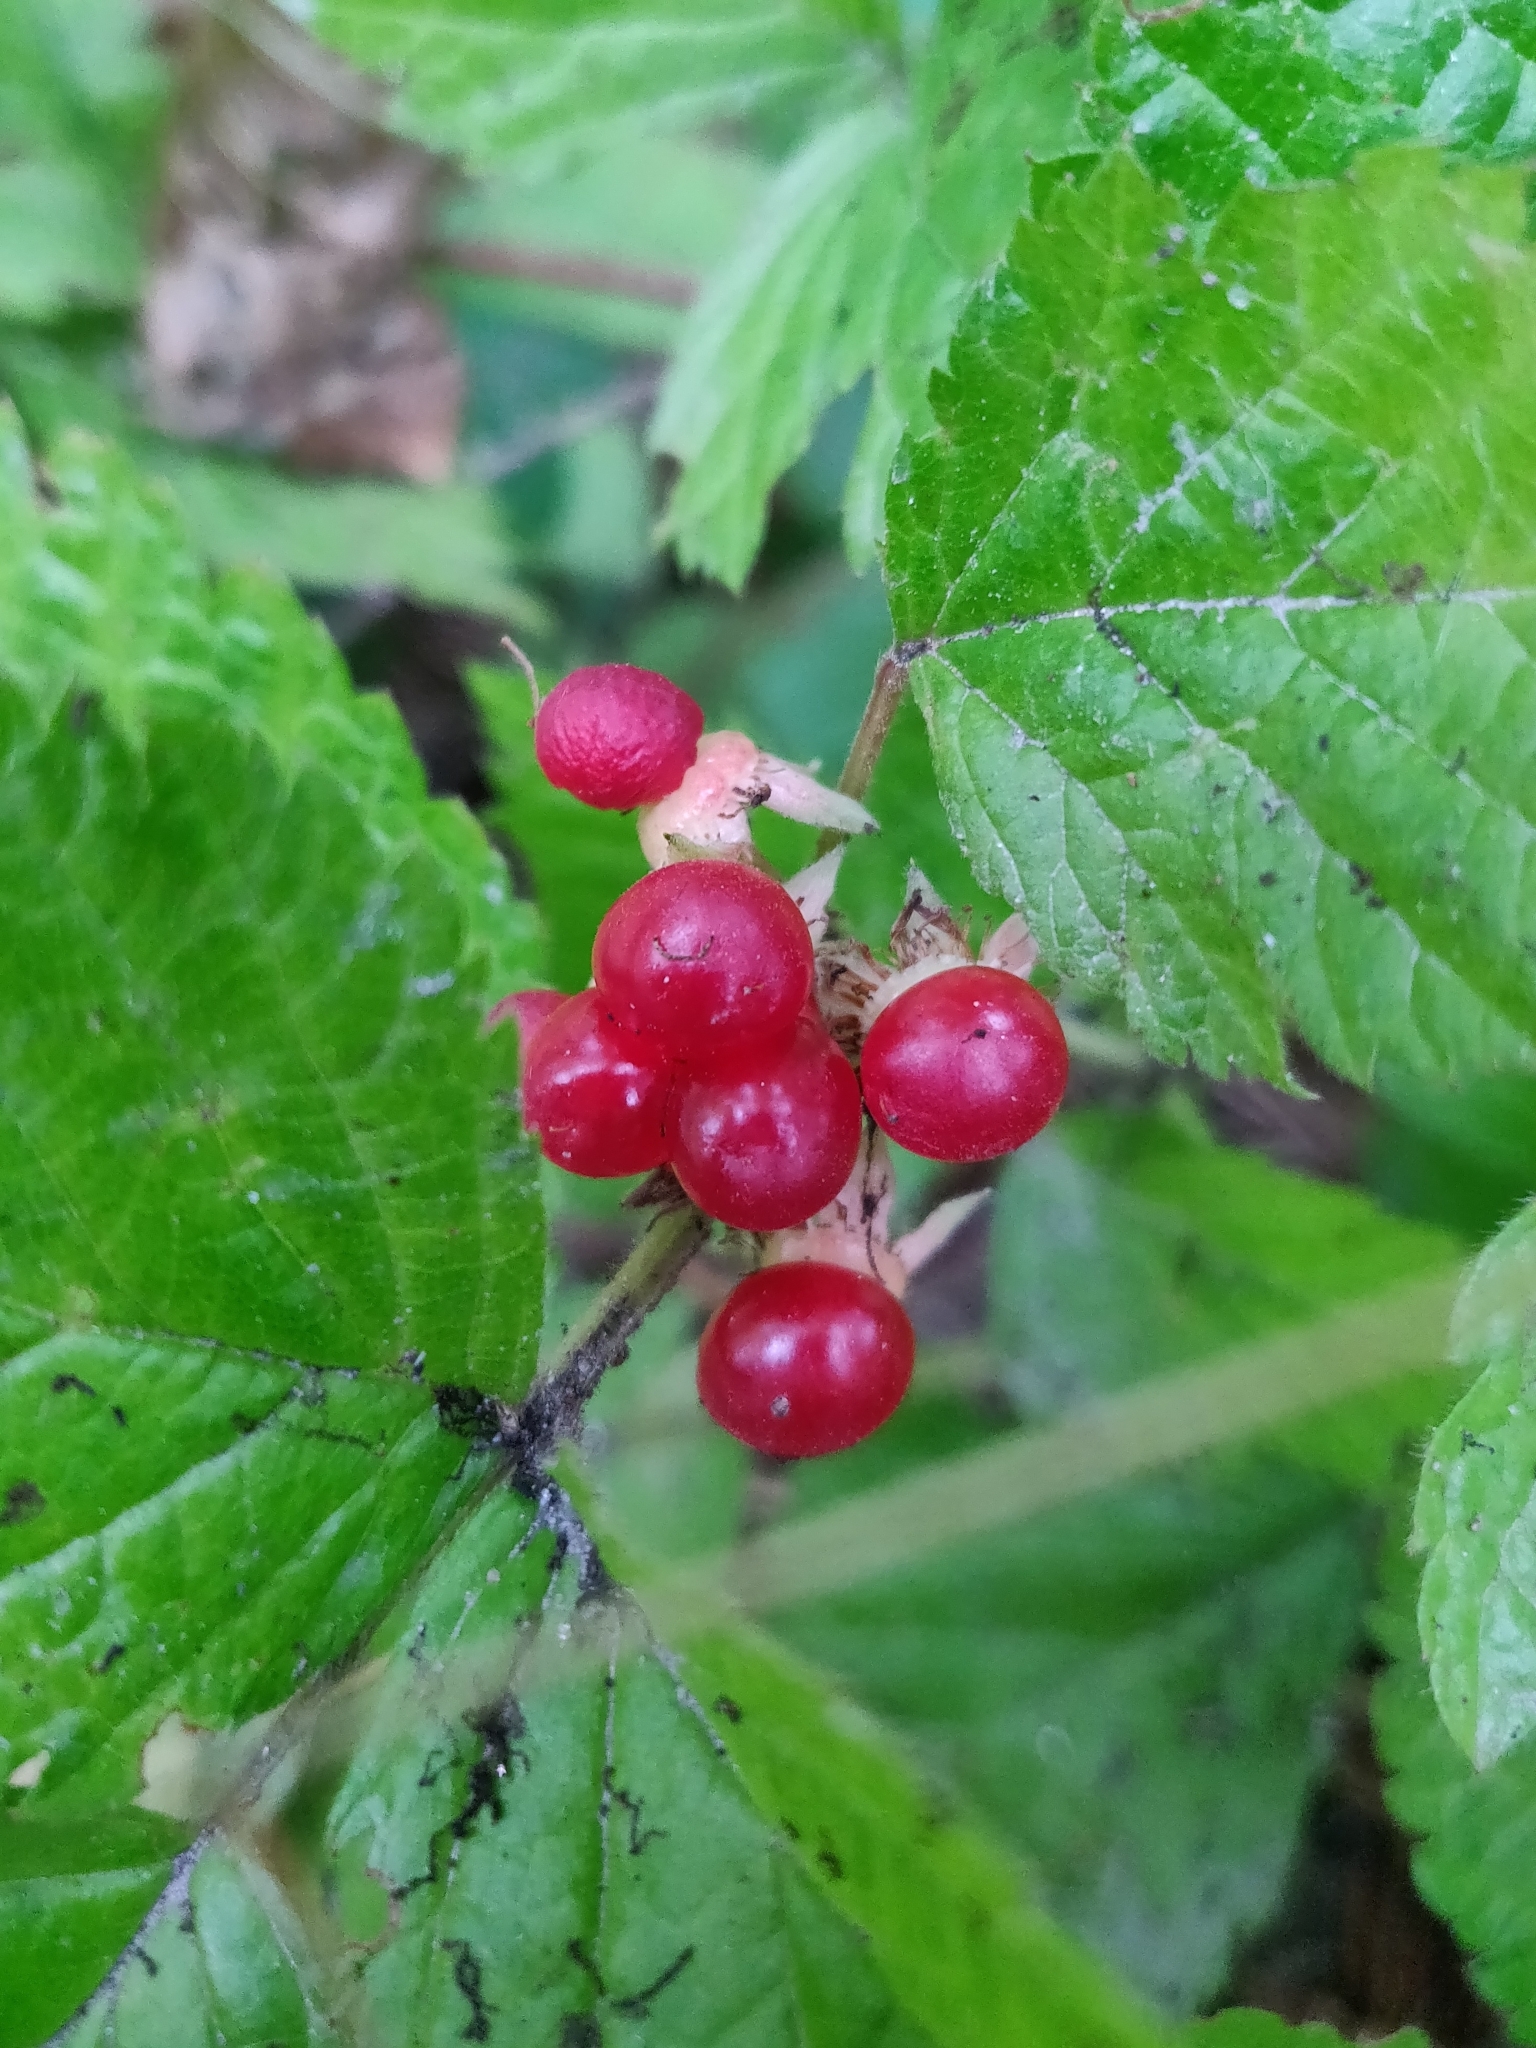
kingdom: Plantae
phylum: Tracheophyta
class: Magnoliopsida
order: Rosales
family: Rosaceae
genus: Rubus
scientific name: Rubus saxatilis
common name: Stone bramble
